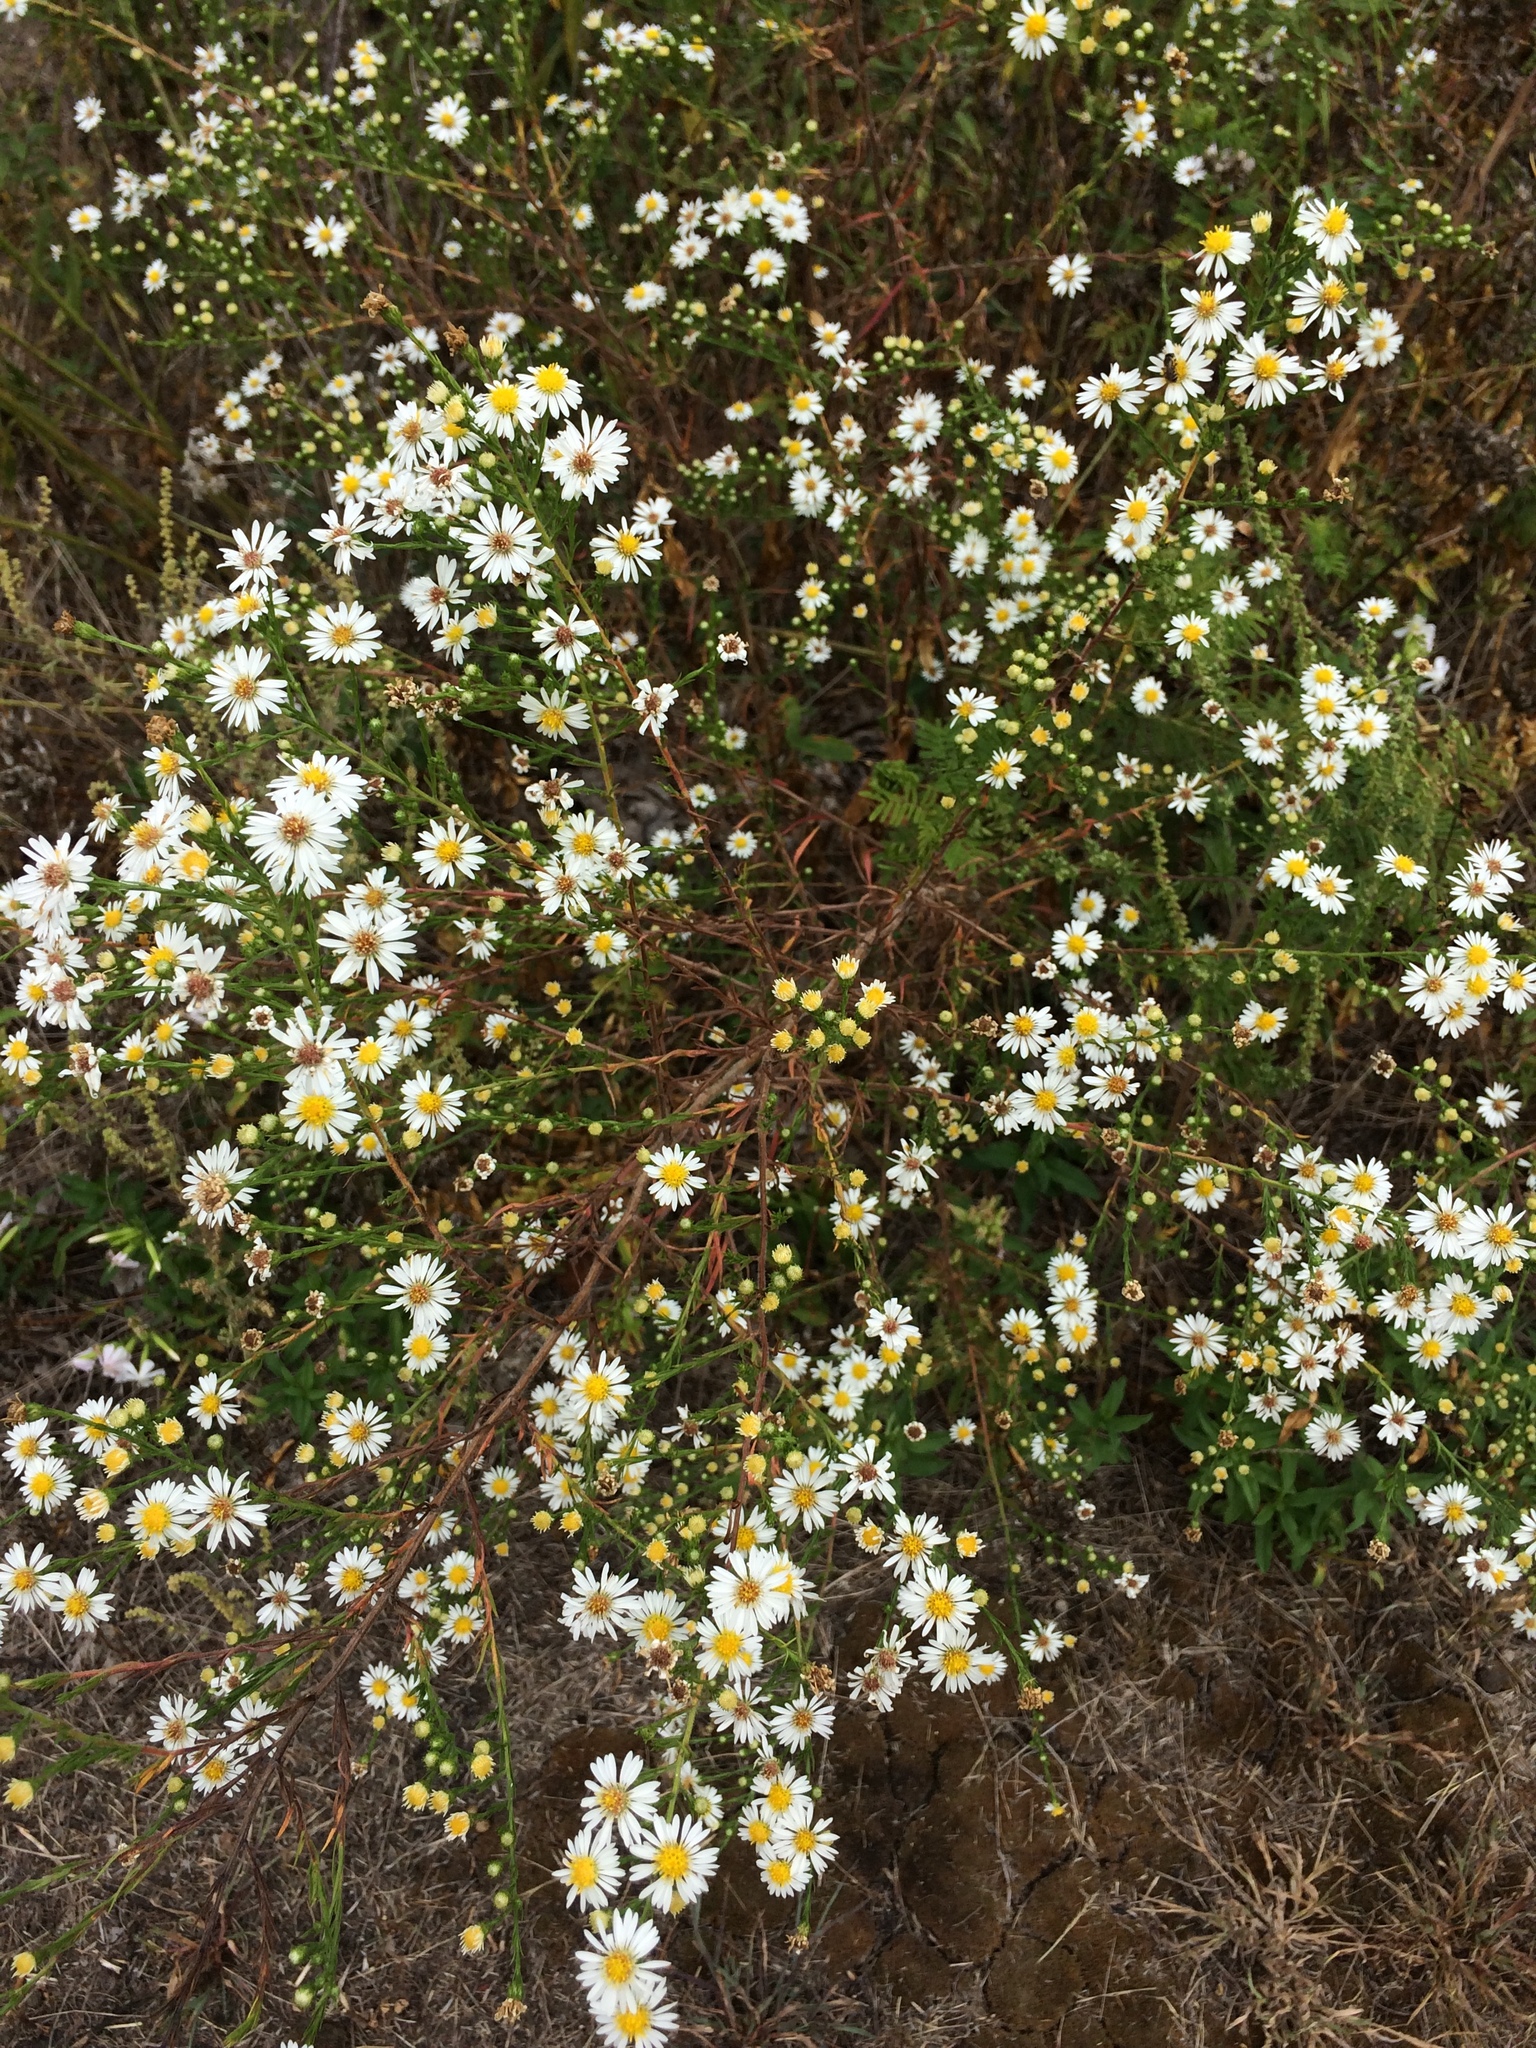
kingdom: Plantae
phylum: Tracheophyta
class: Magnoliopsida
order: Asterales
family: Asteraceae
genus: Symphyotrichum
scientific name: Symphyotrichum ericoides
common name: Heath aster
